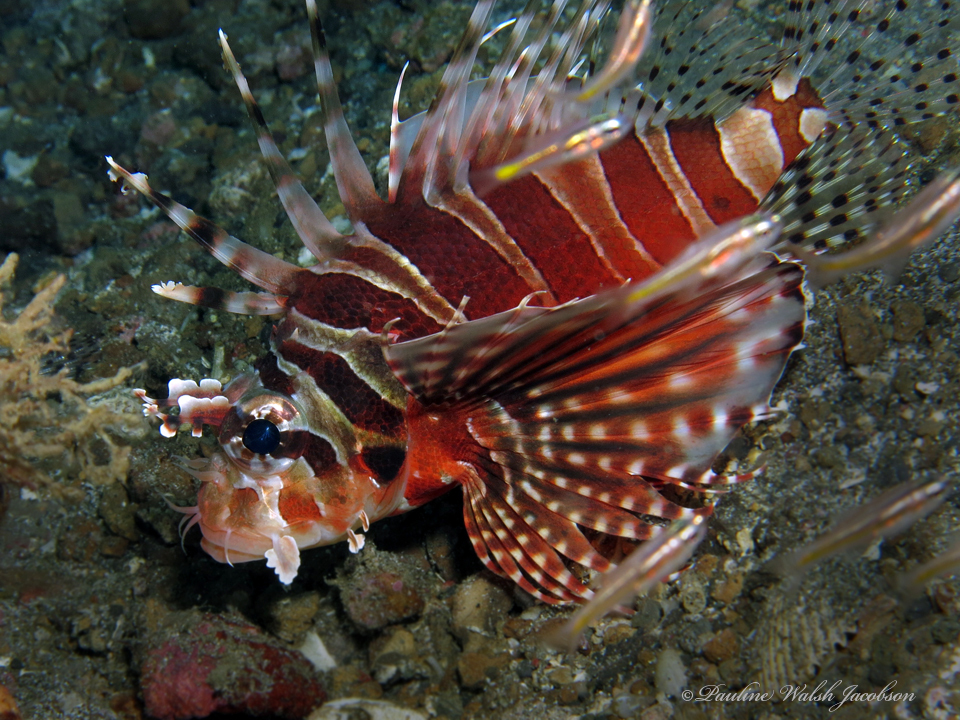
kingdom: Animalia
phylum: Chordata
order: Scorpaeniformes
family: Scorpaenidae
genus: Dendrochirus
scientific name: Dendrochirus zebra
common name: Zebra lionfish
